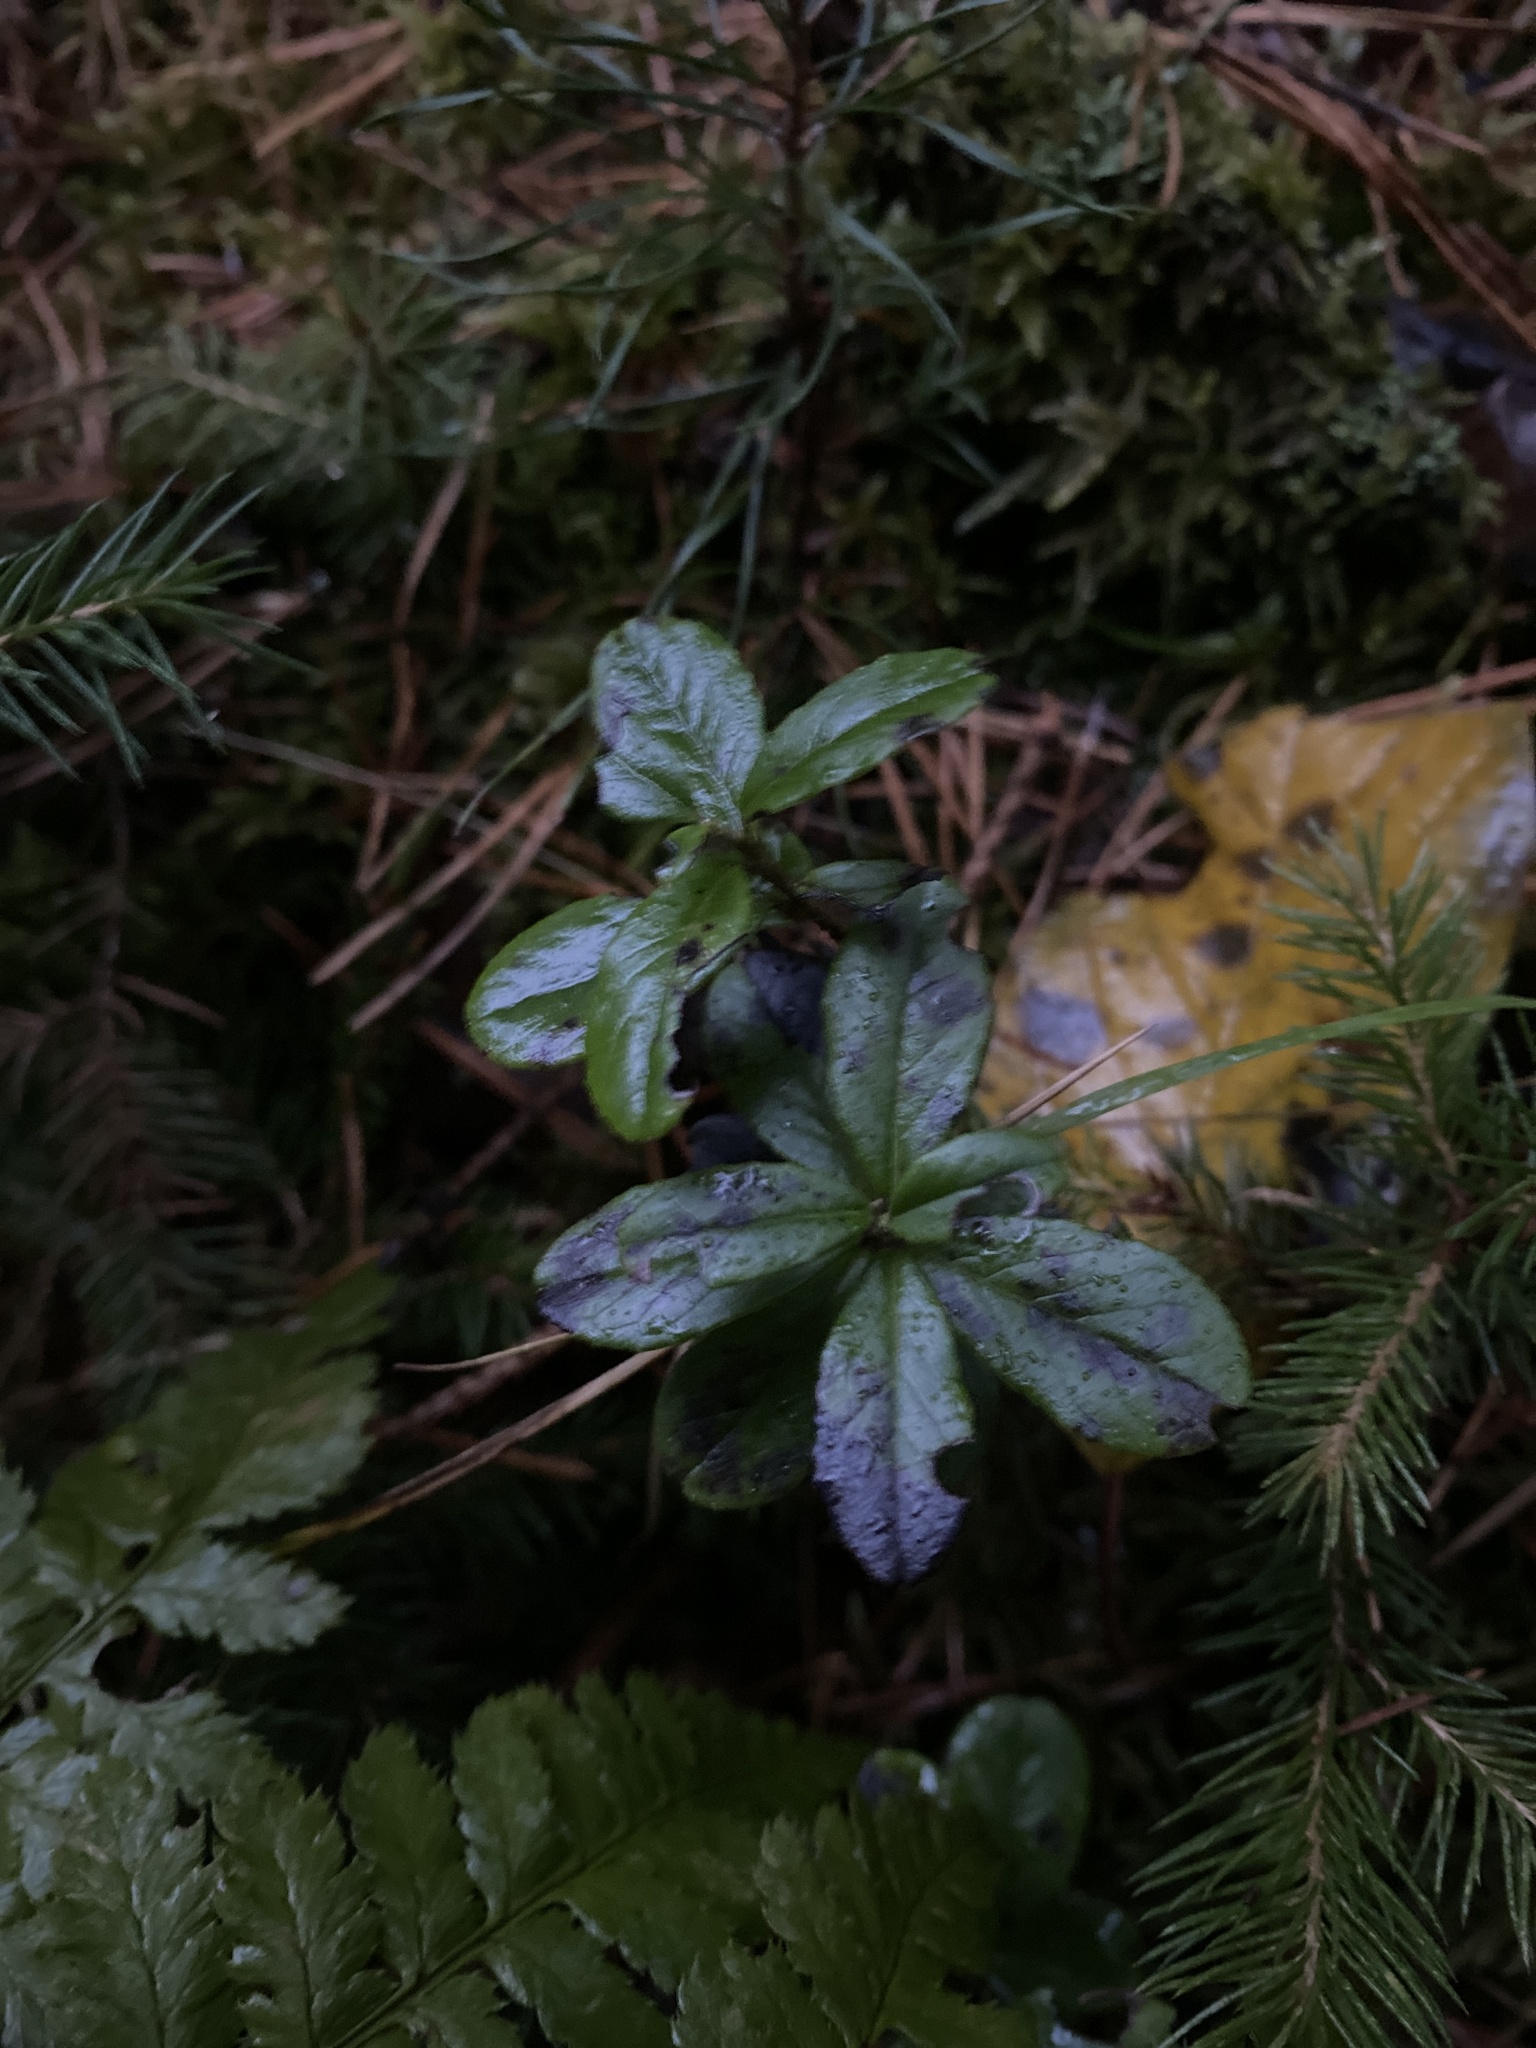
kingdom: Plantae
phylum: Tracheophyta
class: Magnoliopsida
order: Ericales
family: Ericaceae
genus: Vaccinium
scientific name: Vaccinium vitis-idaea
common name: Cowberry
